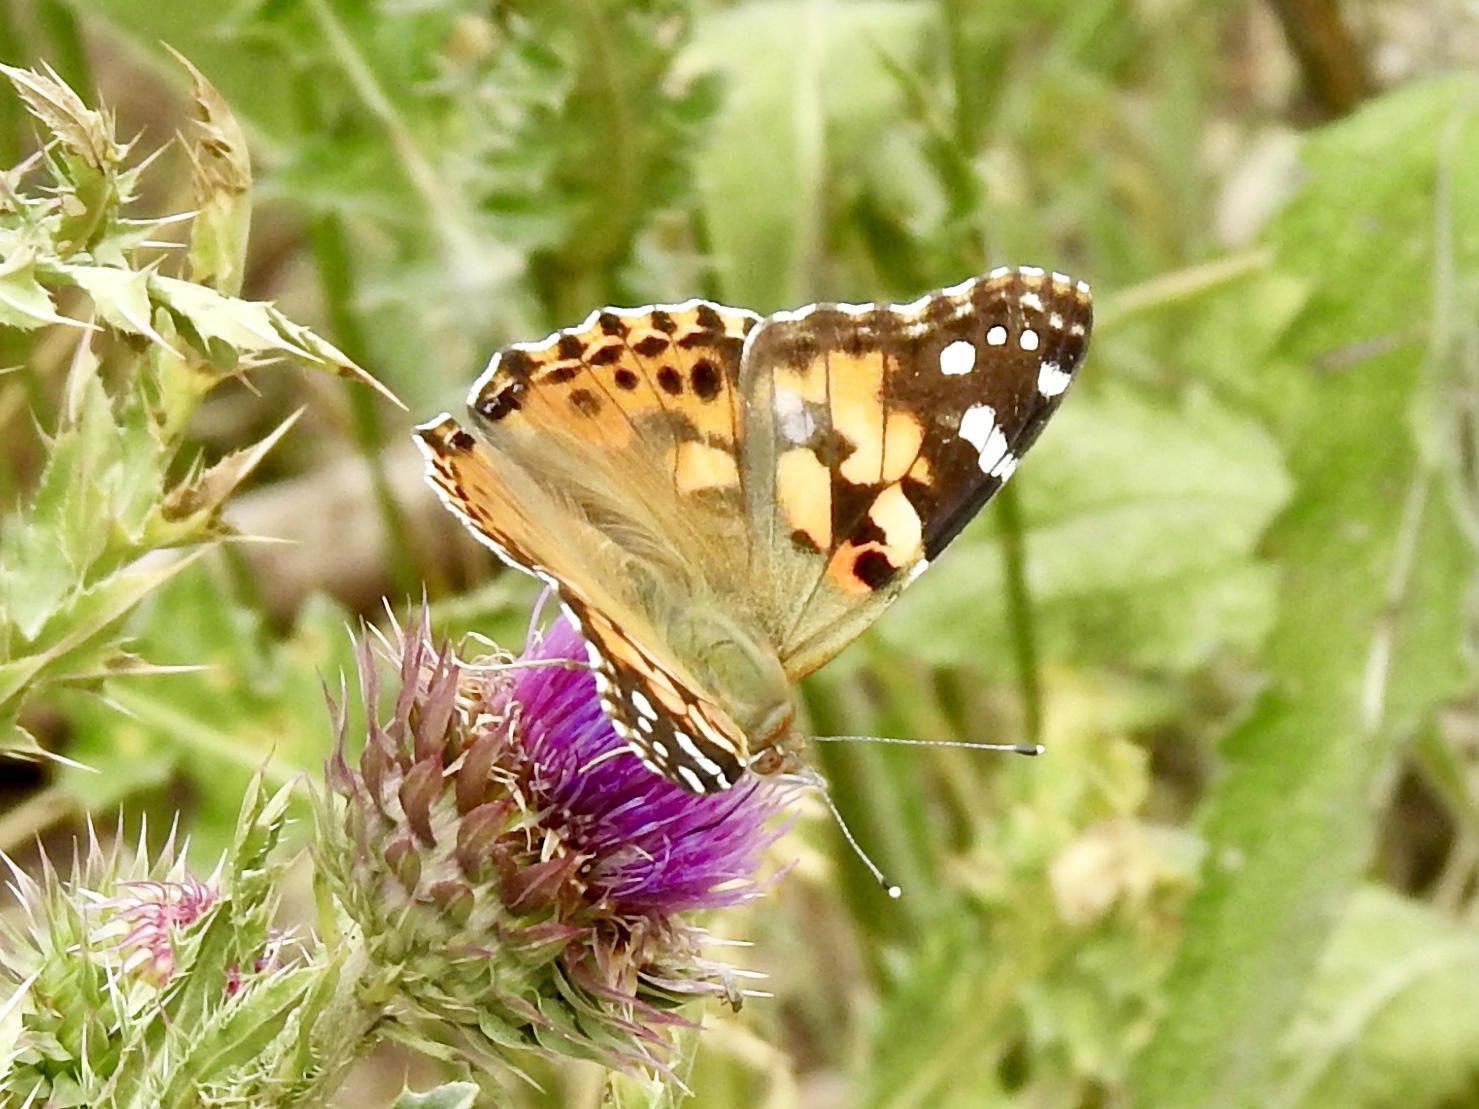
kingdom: Animalia
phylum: Arthropoda
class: Insecta
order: Lepidoptera
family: Nymphalidae
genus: Vanessa
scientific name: Vanessa cardui
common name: Painted lady
